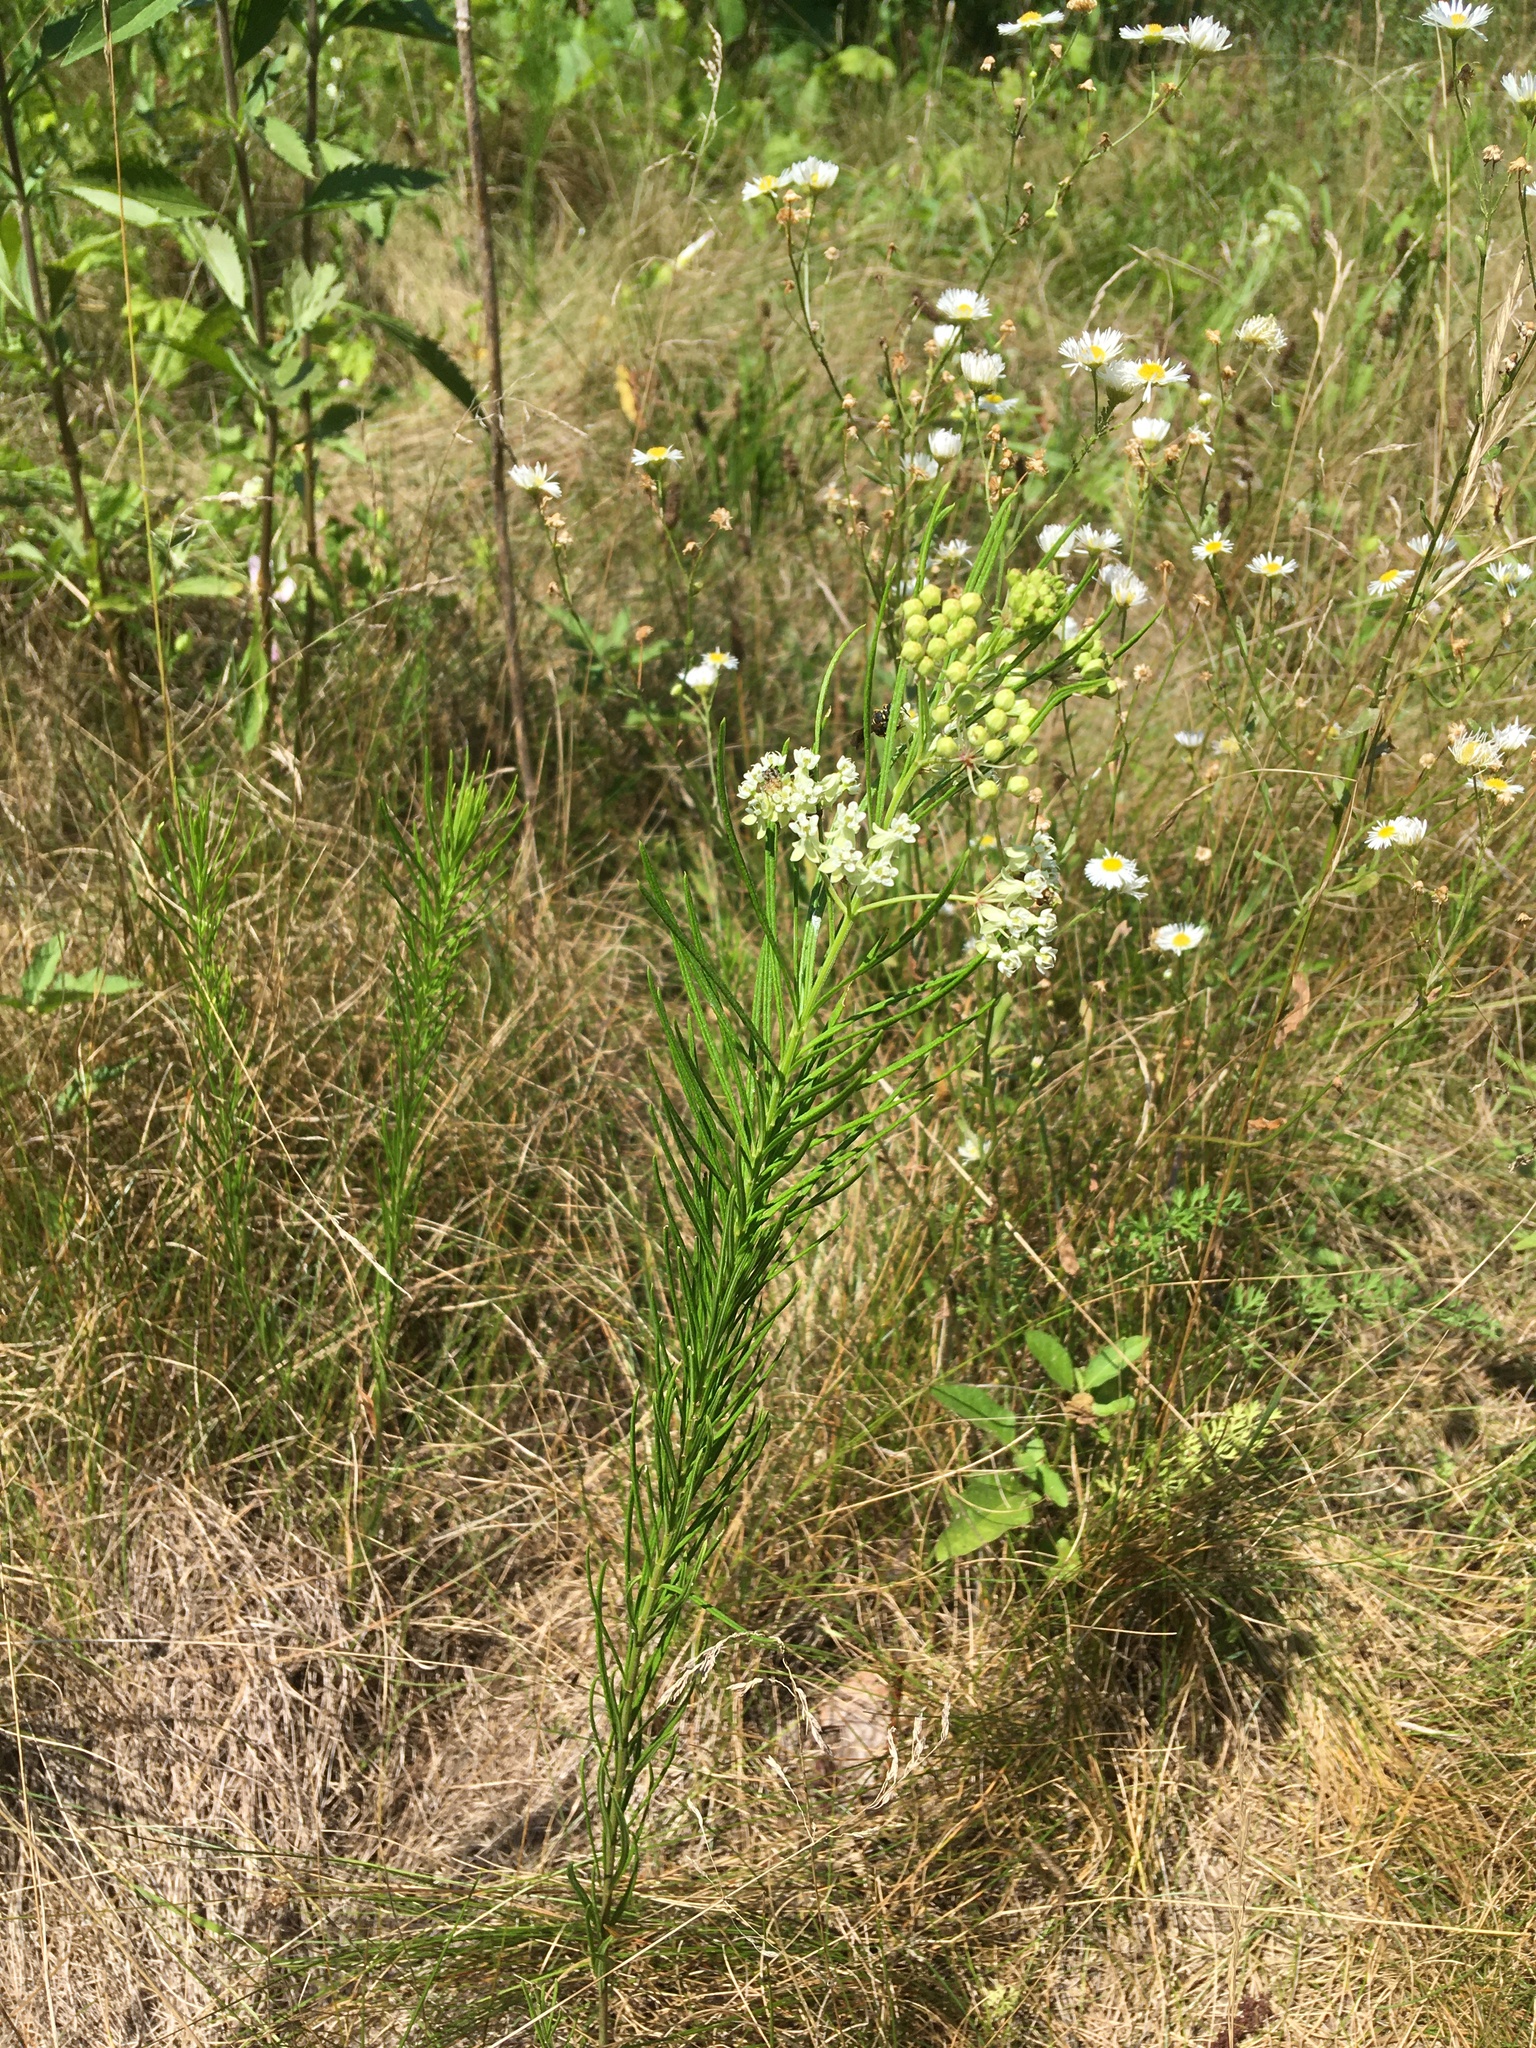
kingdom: Plantae
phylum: Tracheophyta
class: Magnoliopsida
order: Gentianales
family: Apocynaceae
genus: Asclepias
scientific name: Asclepias verticillata
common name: Eastern whorled milkweed
